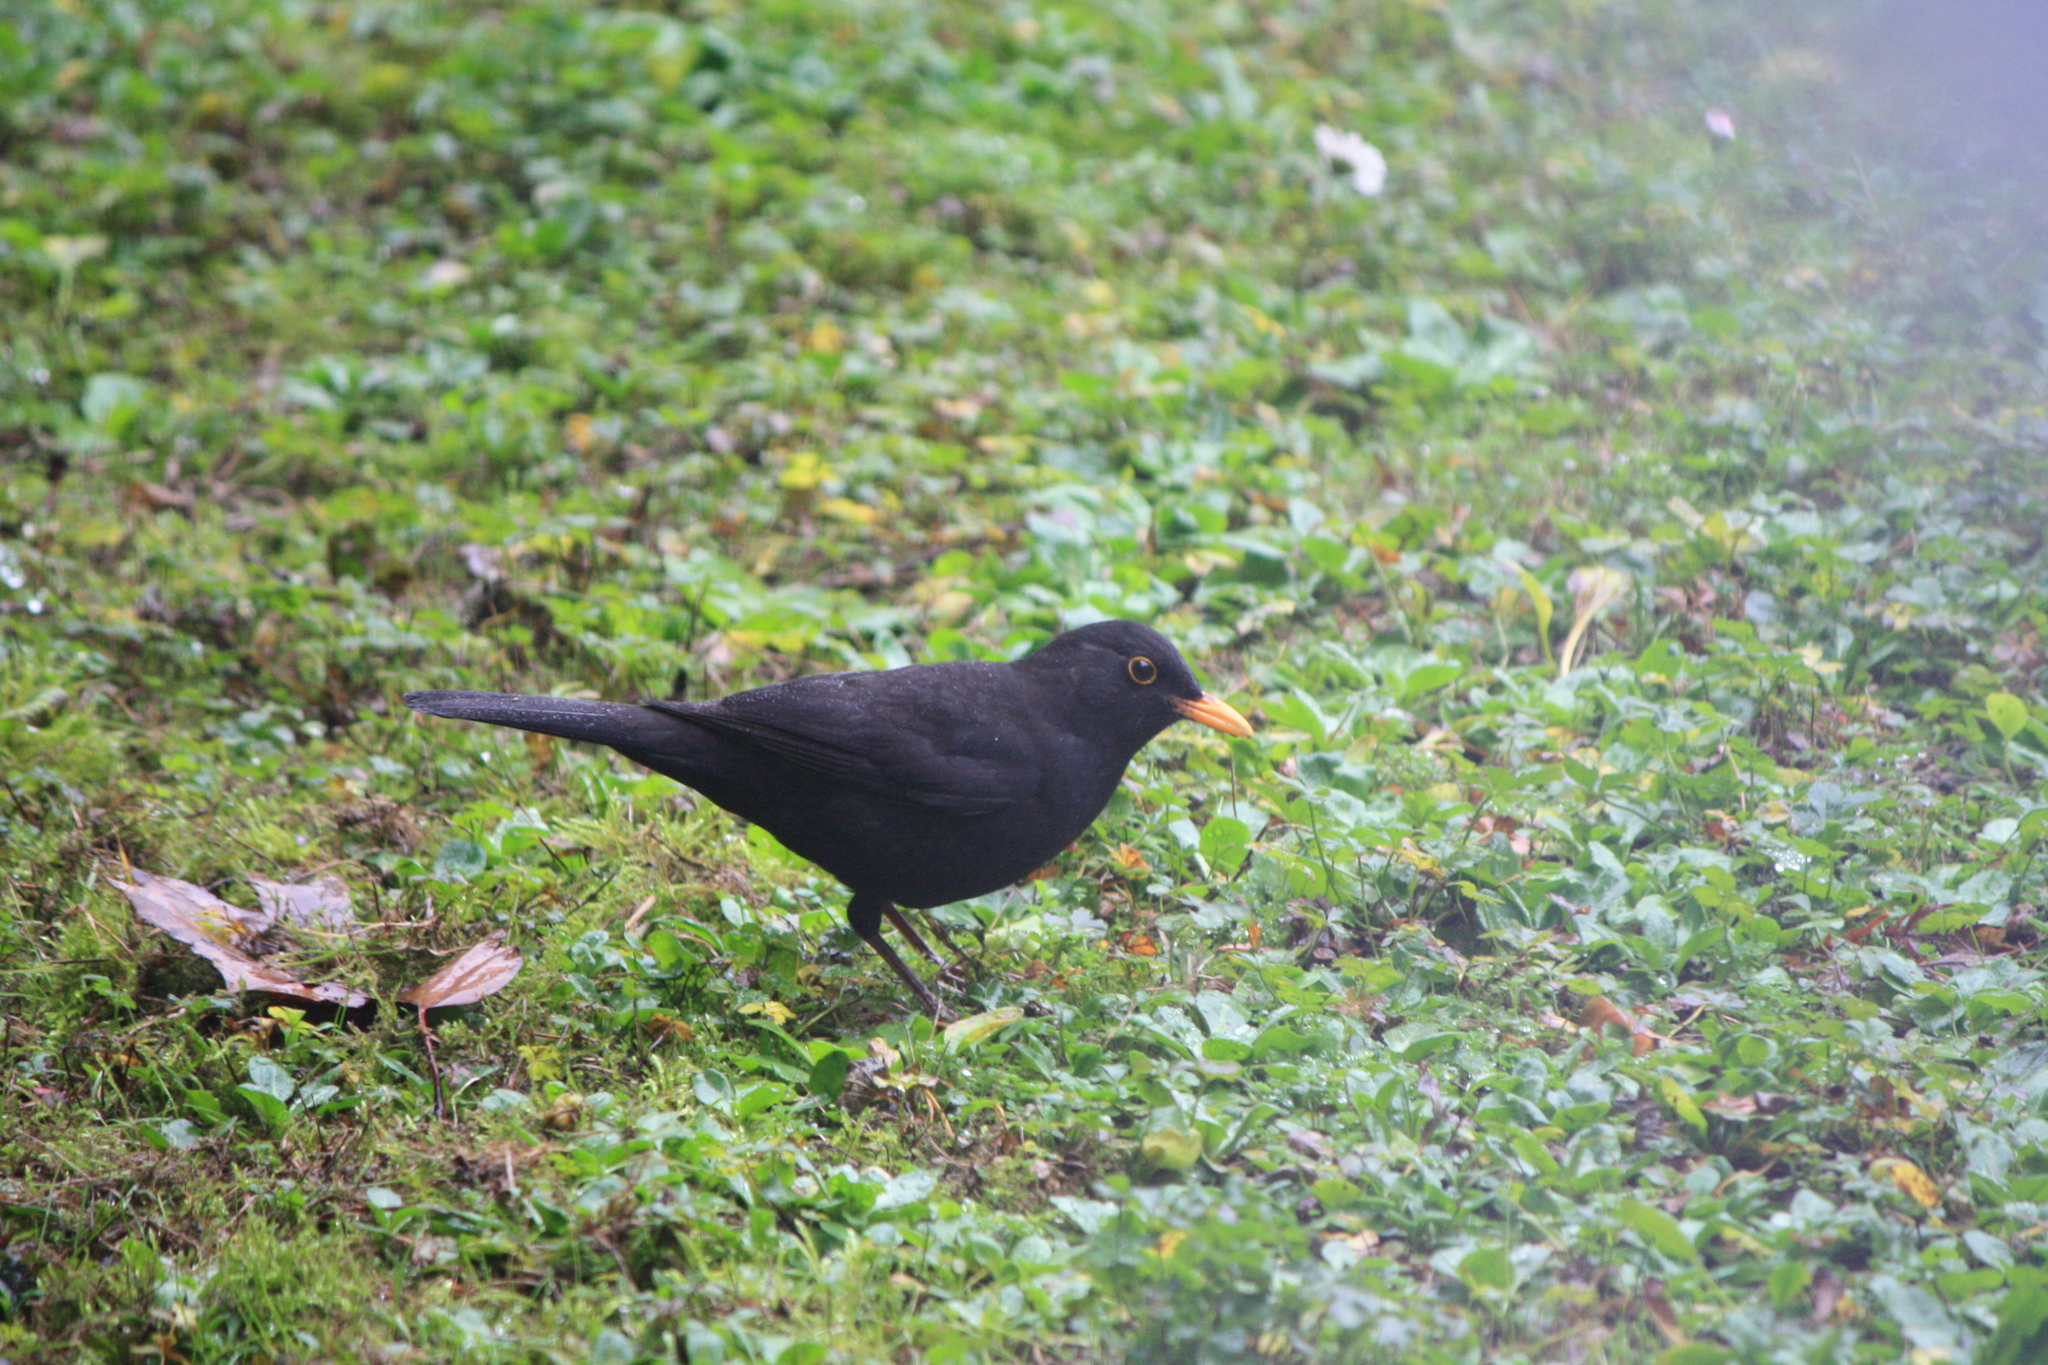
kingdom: Animalia
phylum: Chordata
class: Aves
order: Passeriformes
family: Turdidae
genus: Turdus
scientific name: Turdus merula
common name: Common blackbird
